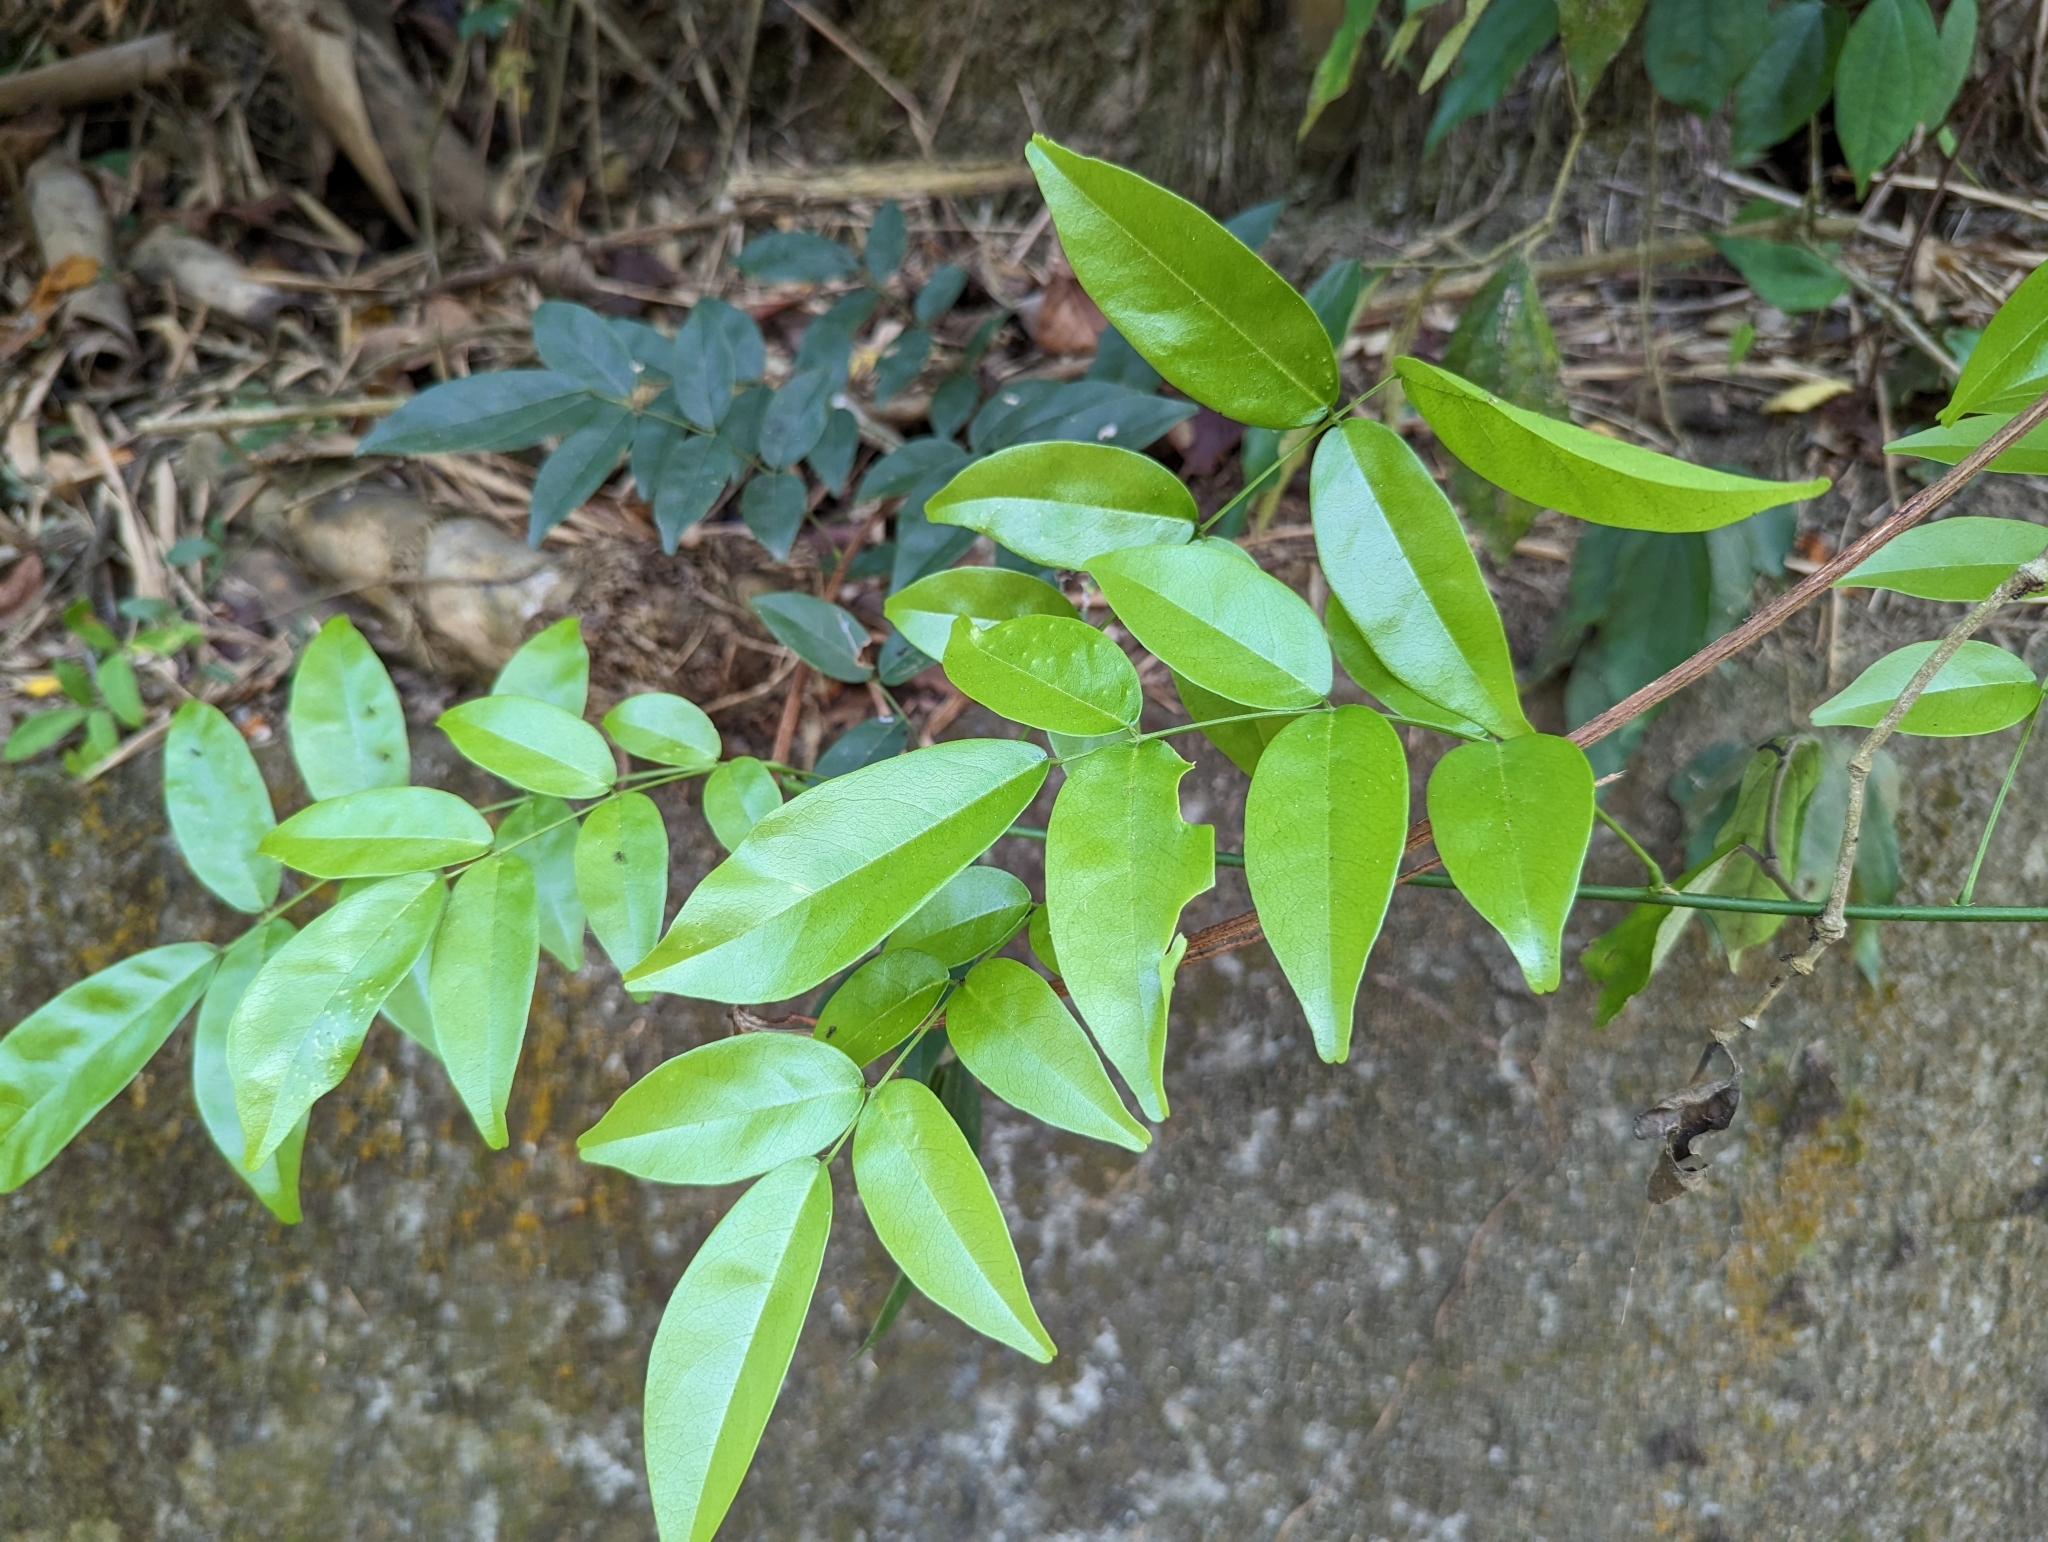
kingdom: Plantae
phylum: Tracheophyta
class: Magnoliopsida
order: Fabales
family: Fabaceae
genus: Wisteriopsis
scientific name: Wisteriopsis reticulata
